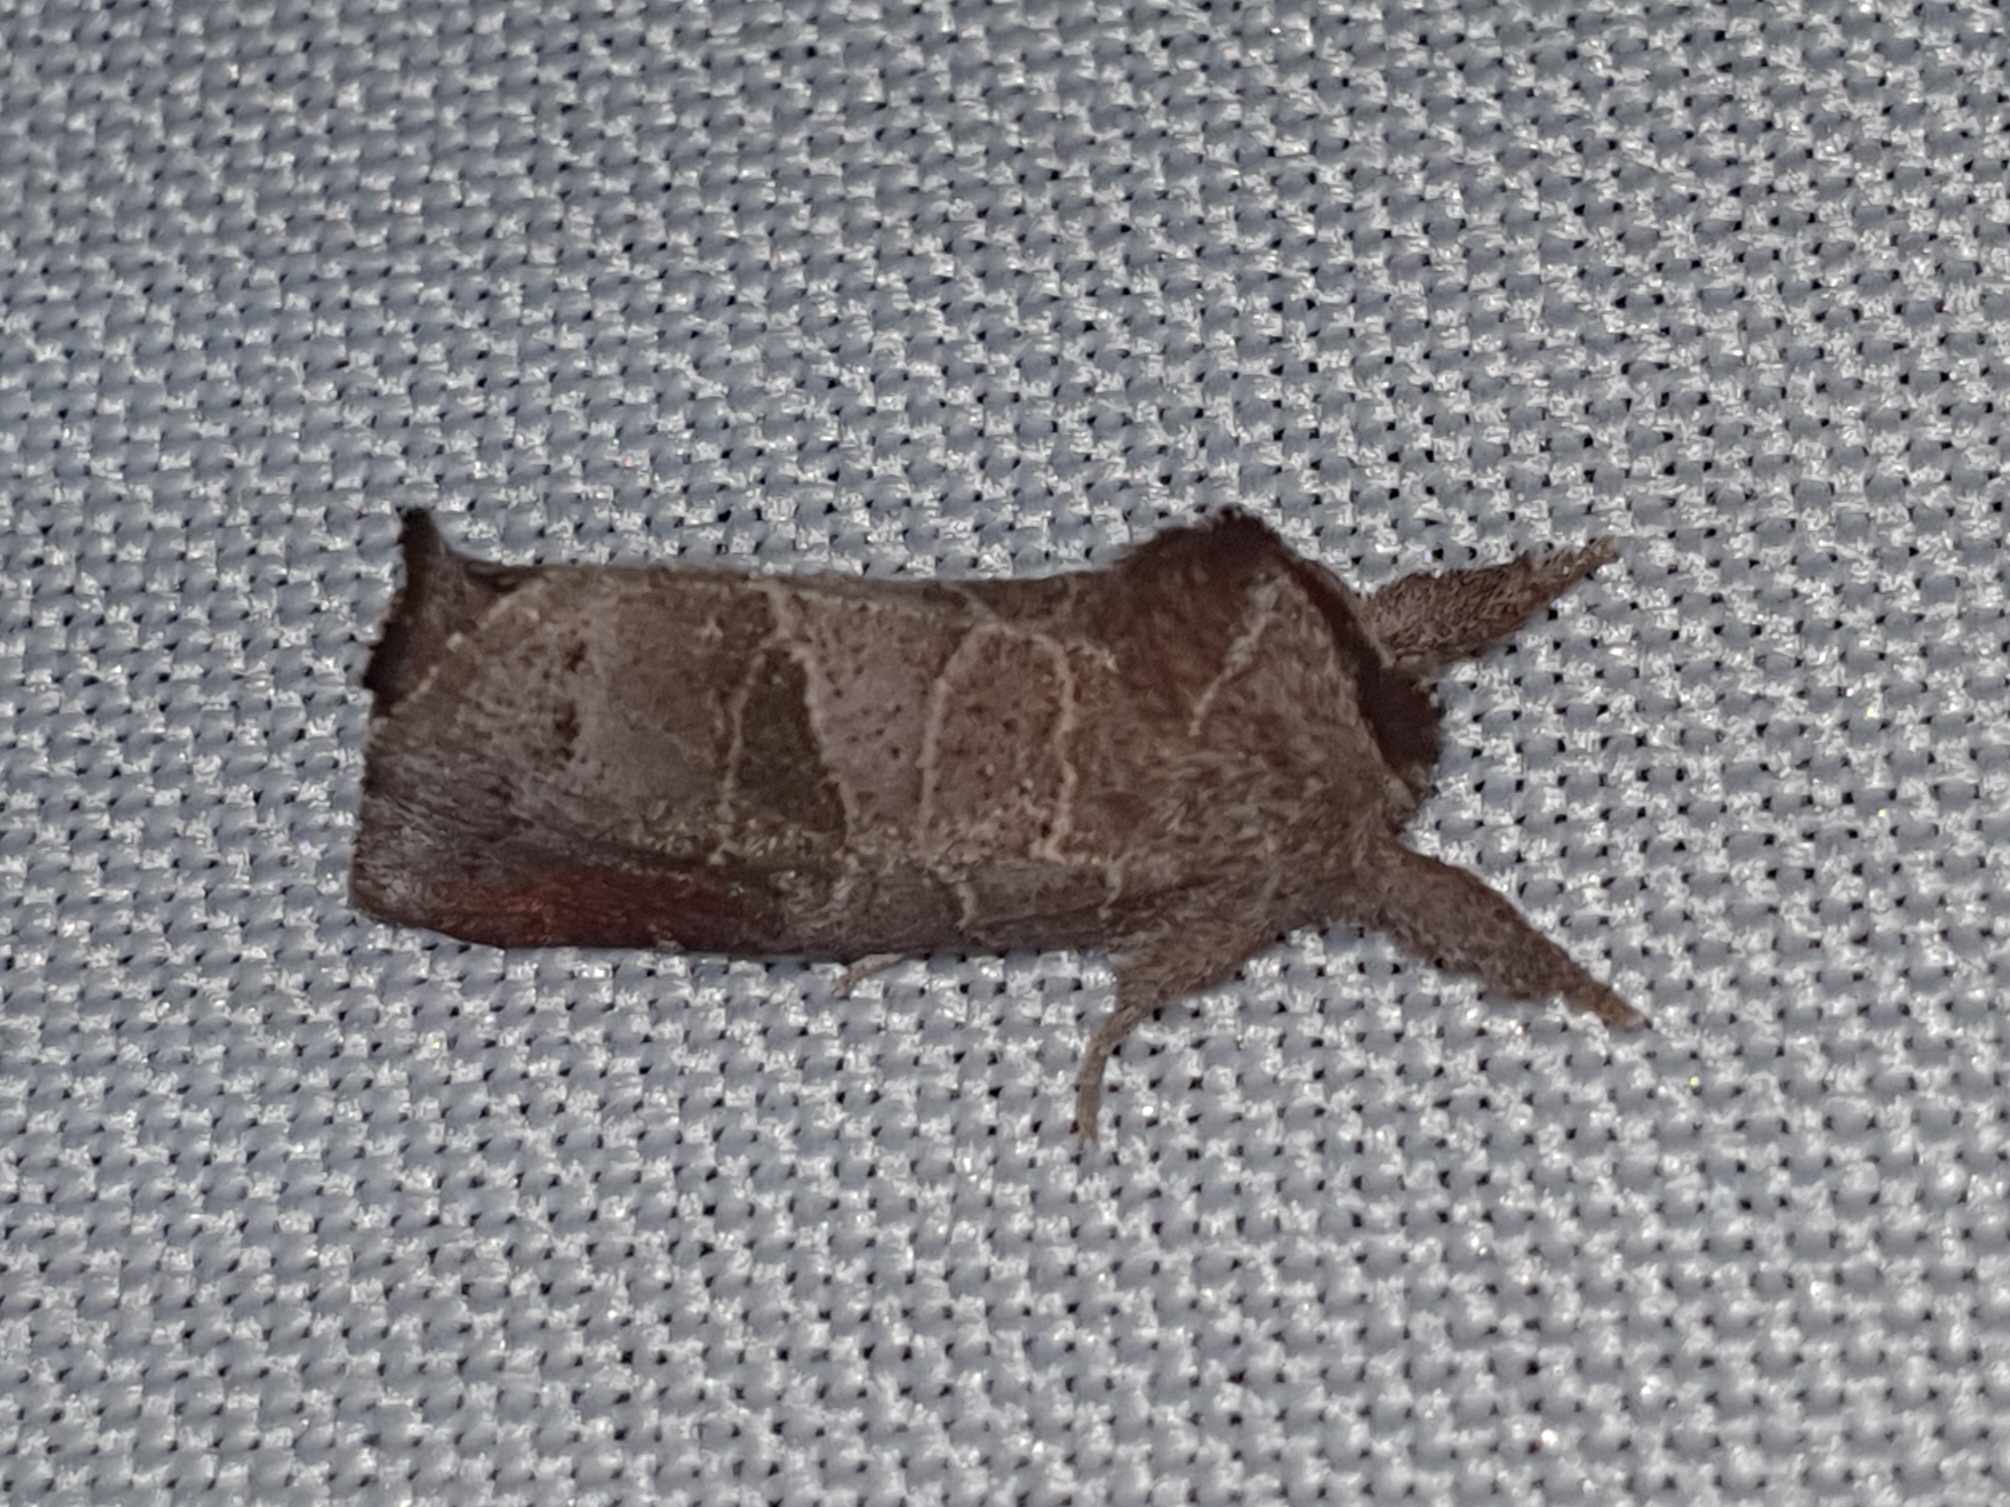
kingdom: Animalia
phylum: Arthropoda
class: Insecta
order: Lepidoptera
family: Notodontidae
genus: Clostera
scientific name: Clostera pigra
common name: Small chocolate-tip
